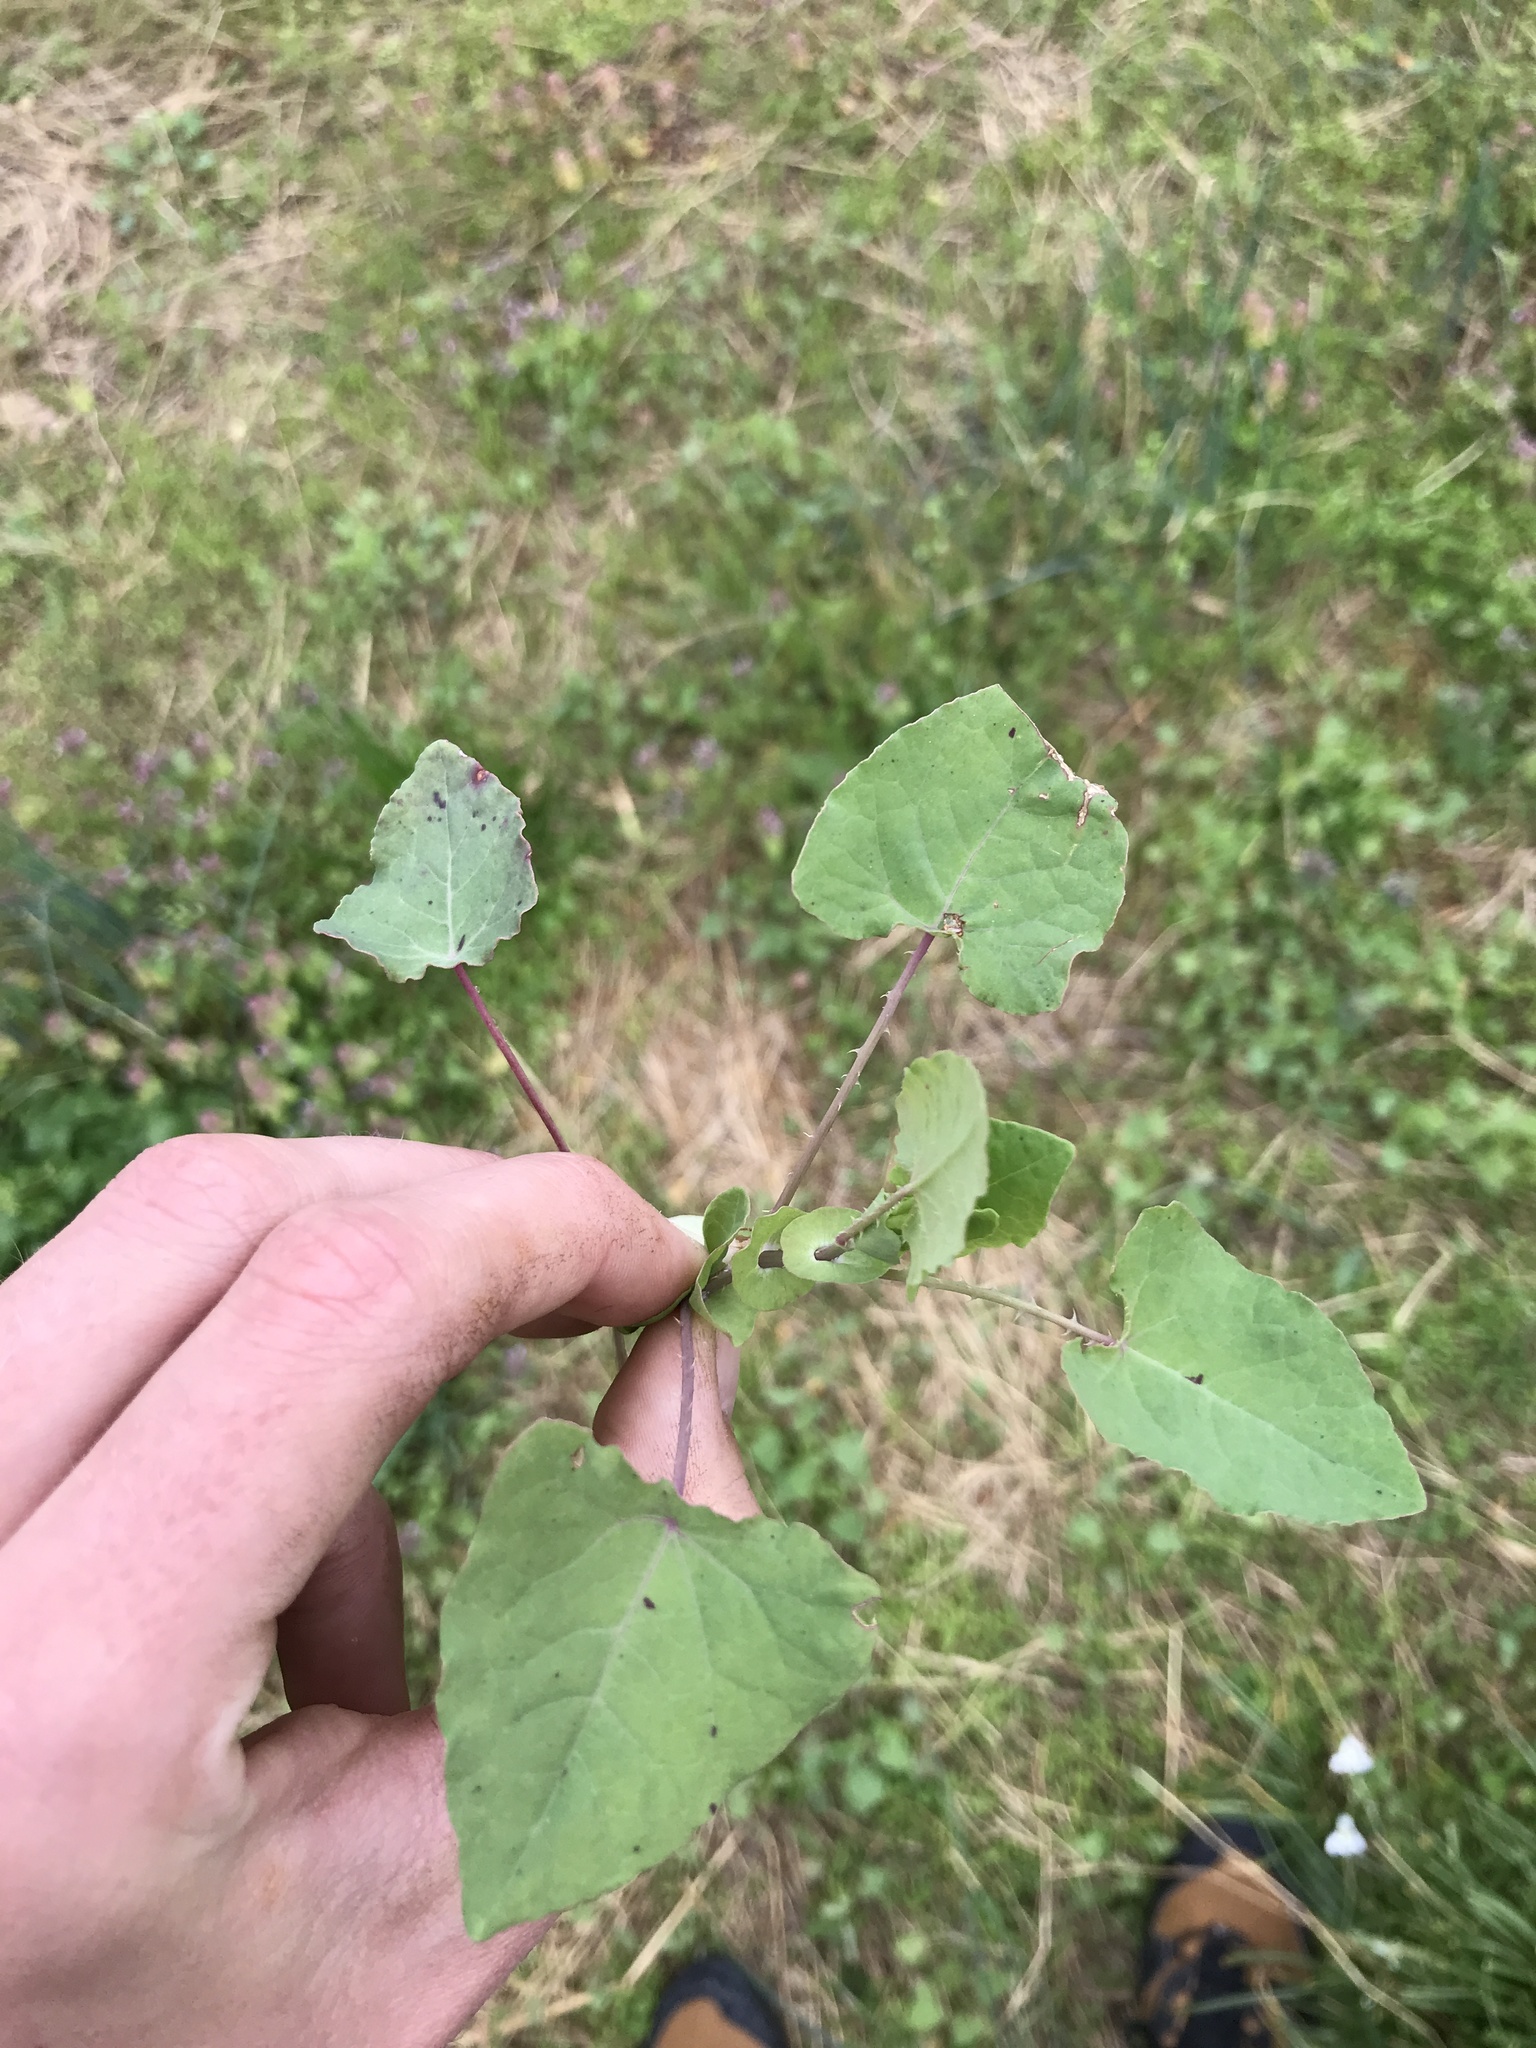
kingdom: Plantae
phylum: Tracheophyta
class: Magnoliopsida
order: Caryophyllales
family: Polygonaceae
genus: Persicaria
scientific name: Persicaria perfoliata
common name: Asiatic tearthumb
